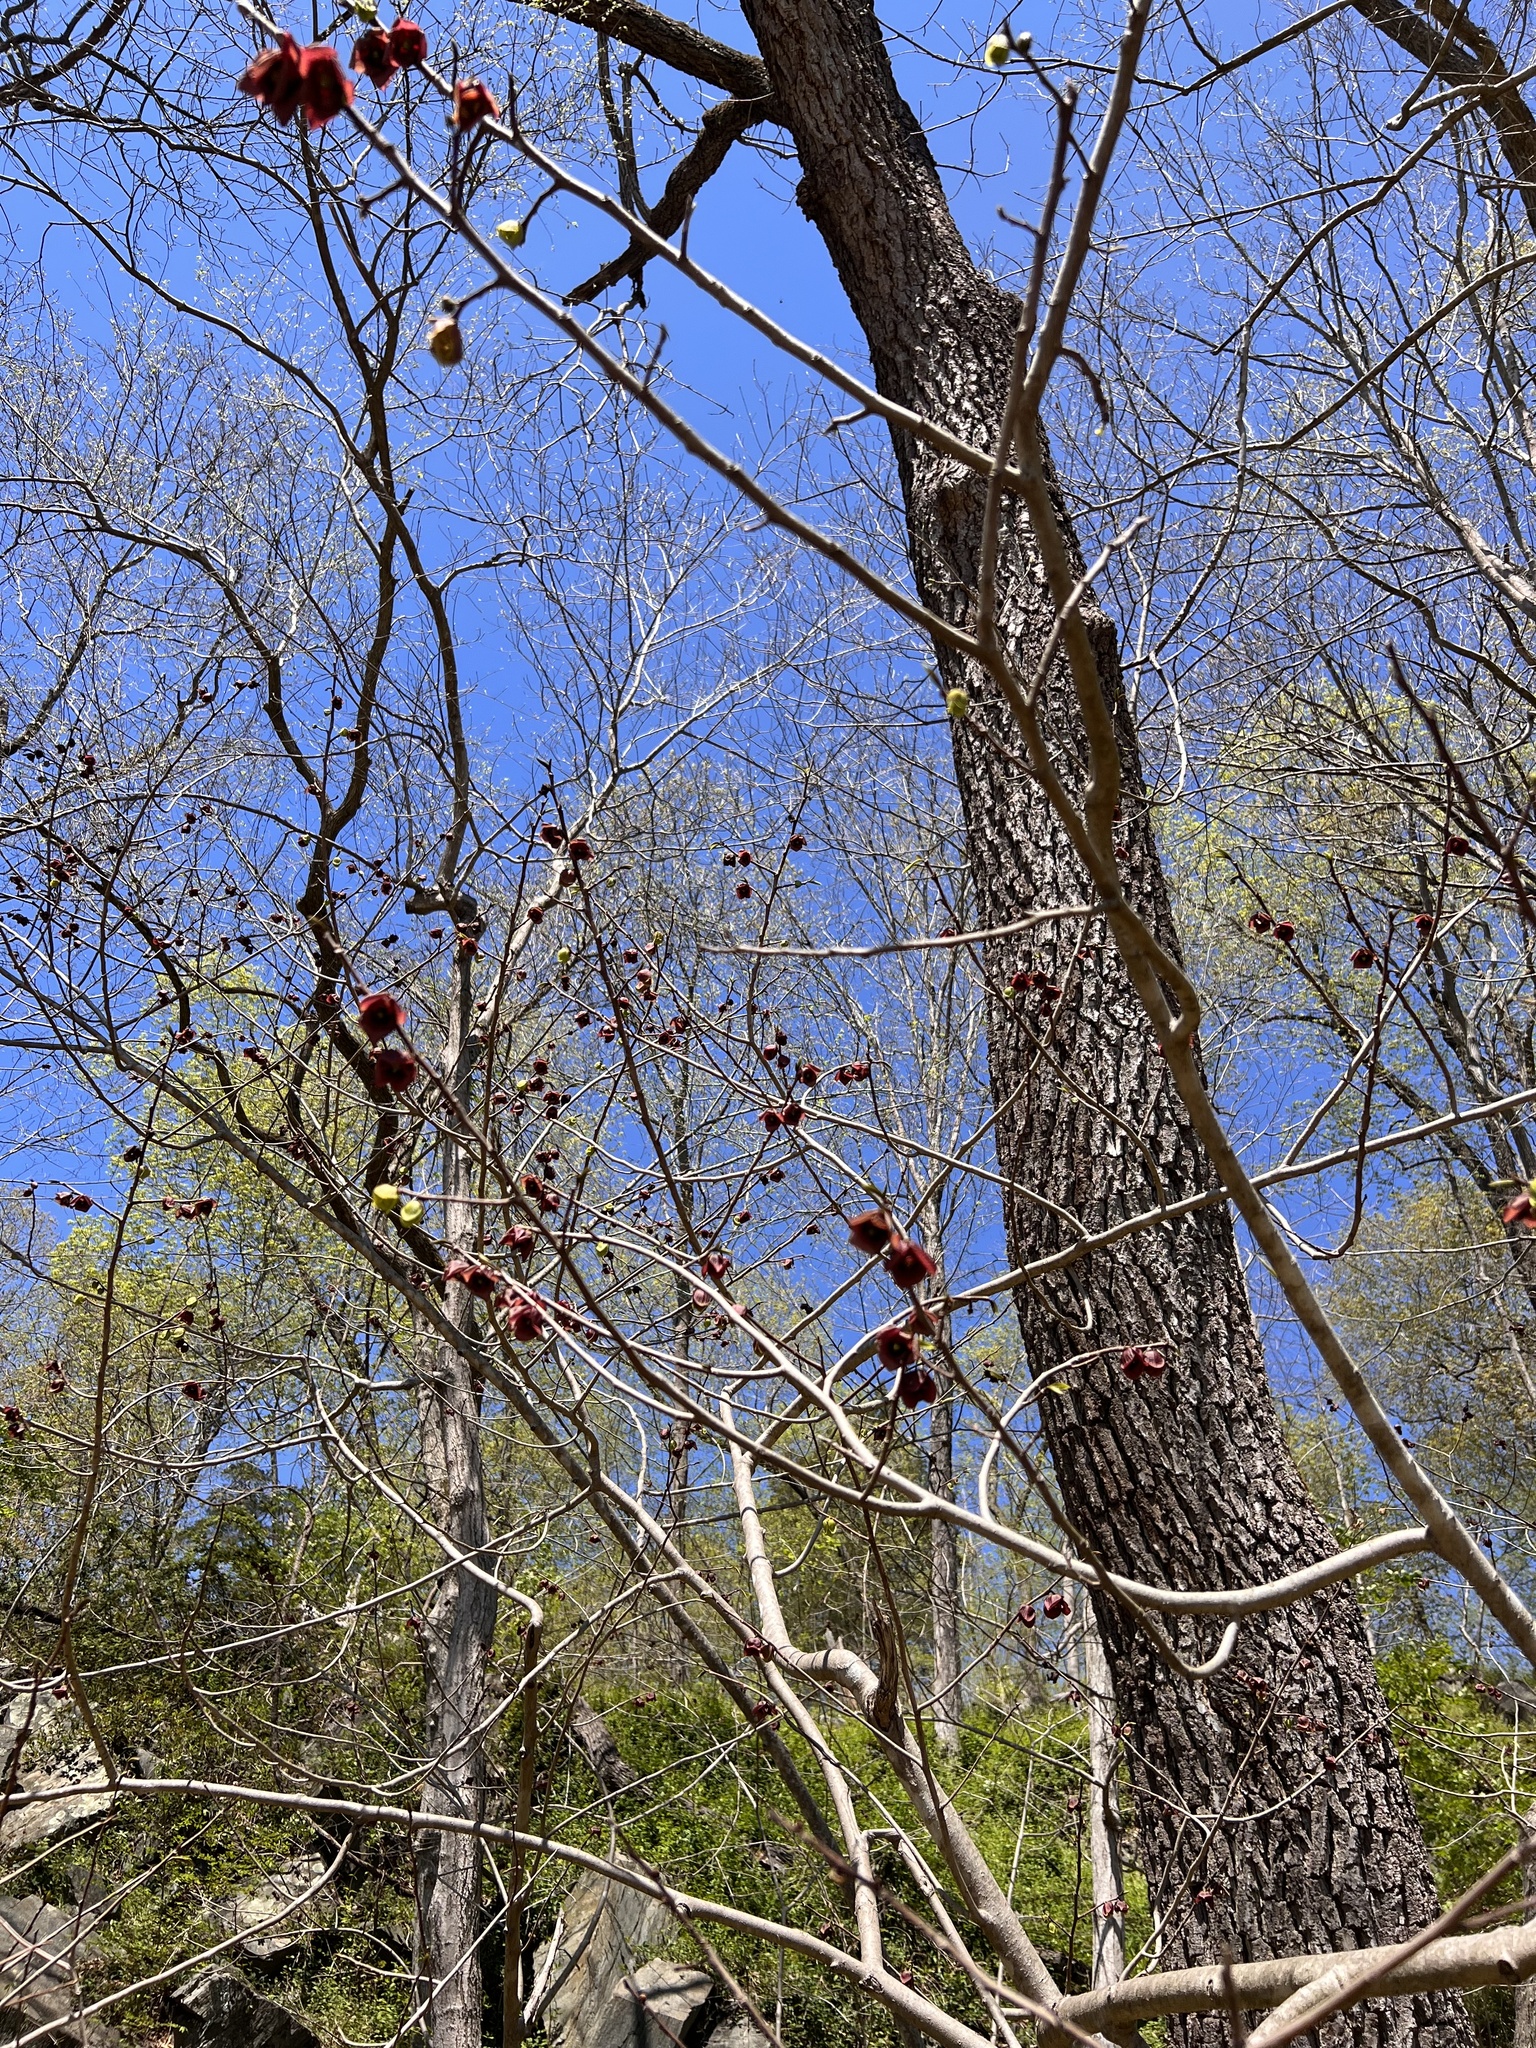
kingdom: Plantae
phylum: Tracheophyta
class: Magnoliopsida
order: Magnoliales
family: Annonaceae
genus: Asimina
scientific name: Asimina triloba
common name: Dog-banana
